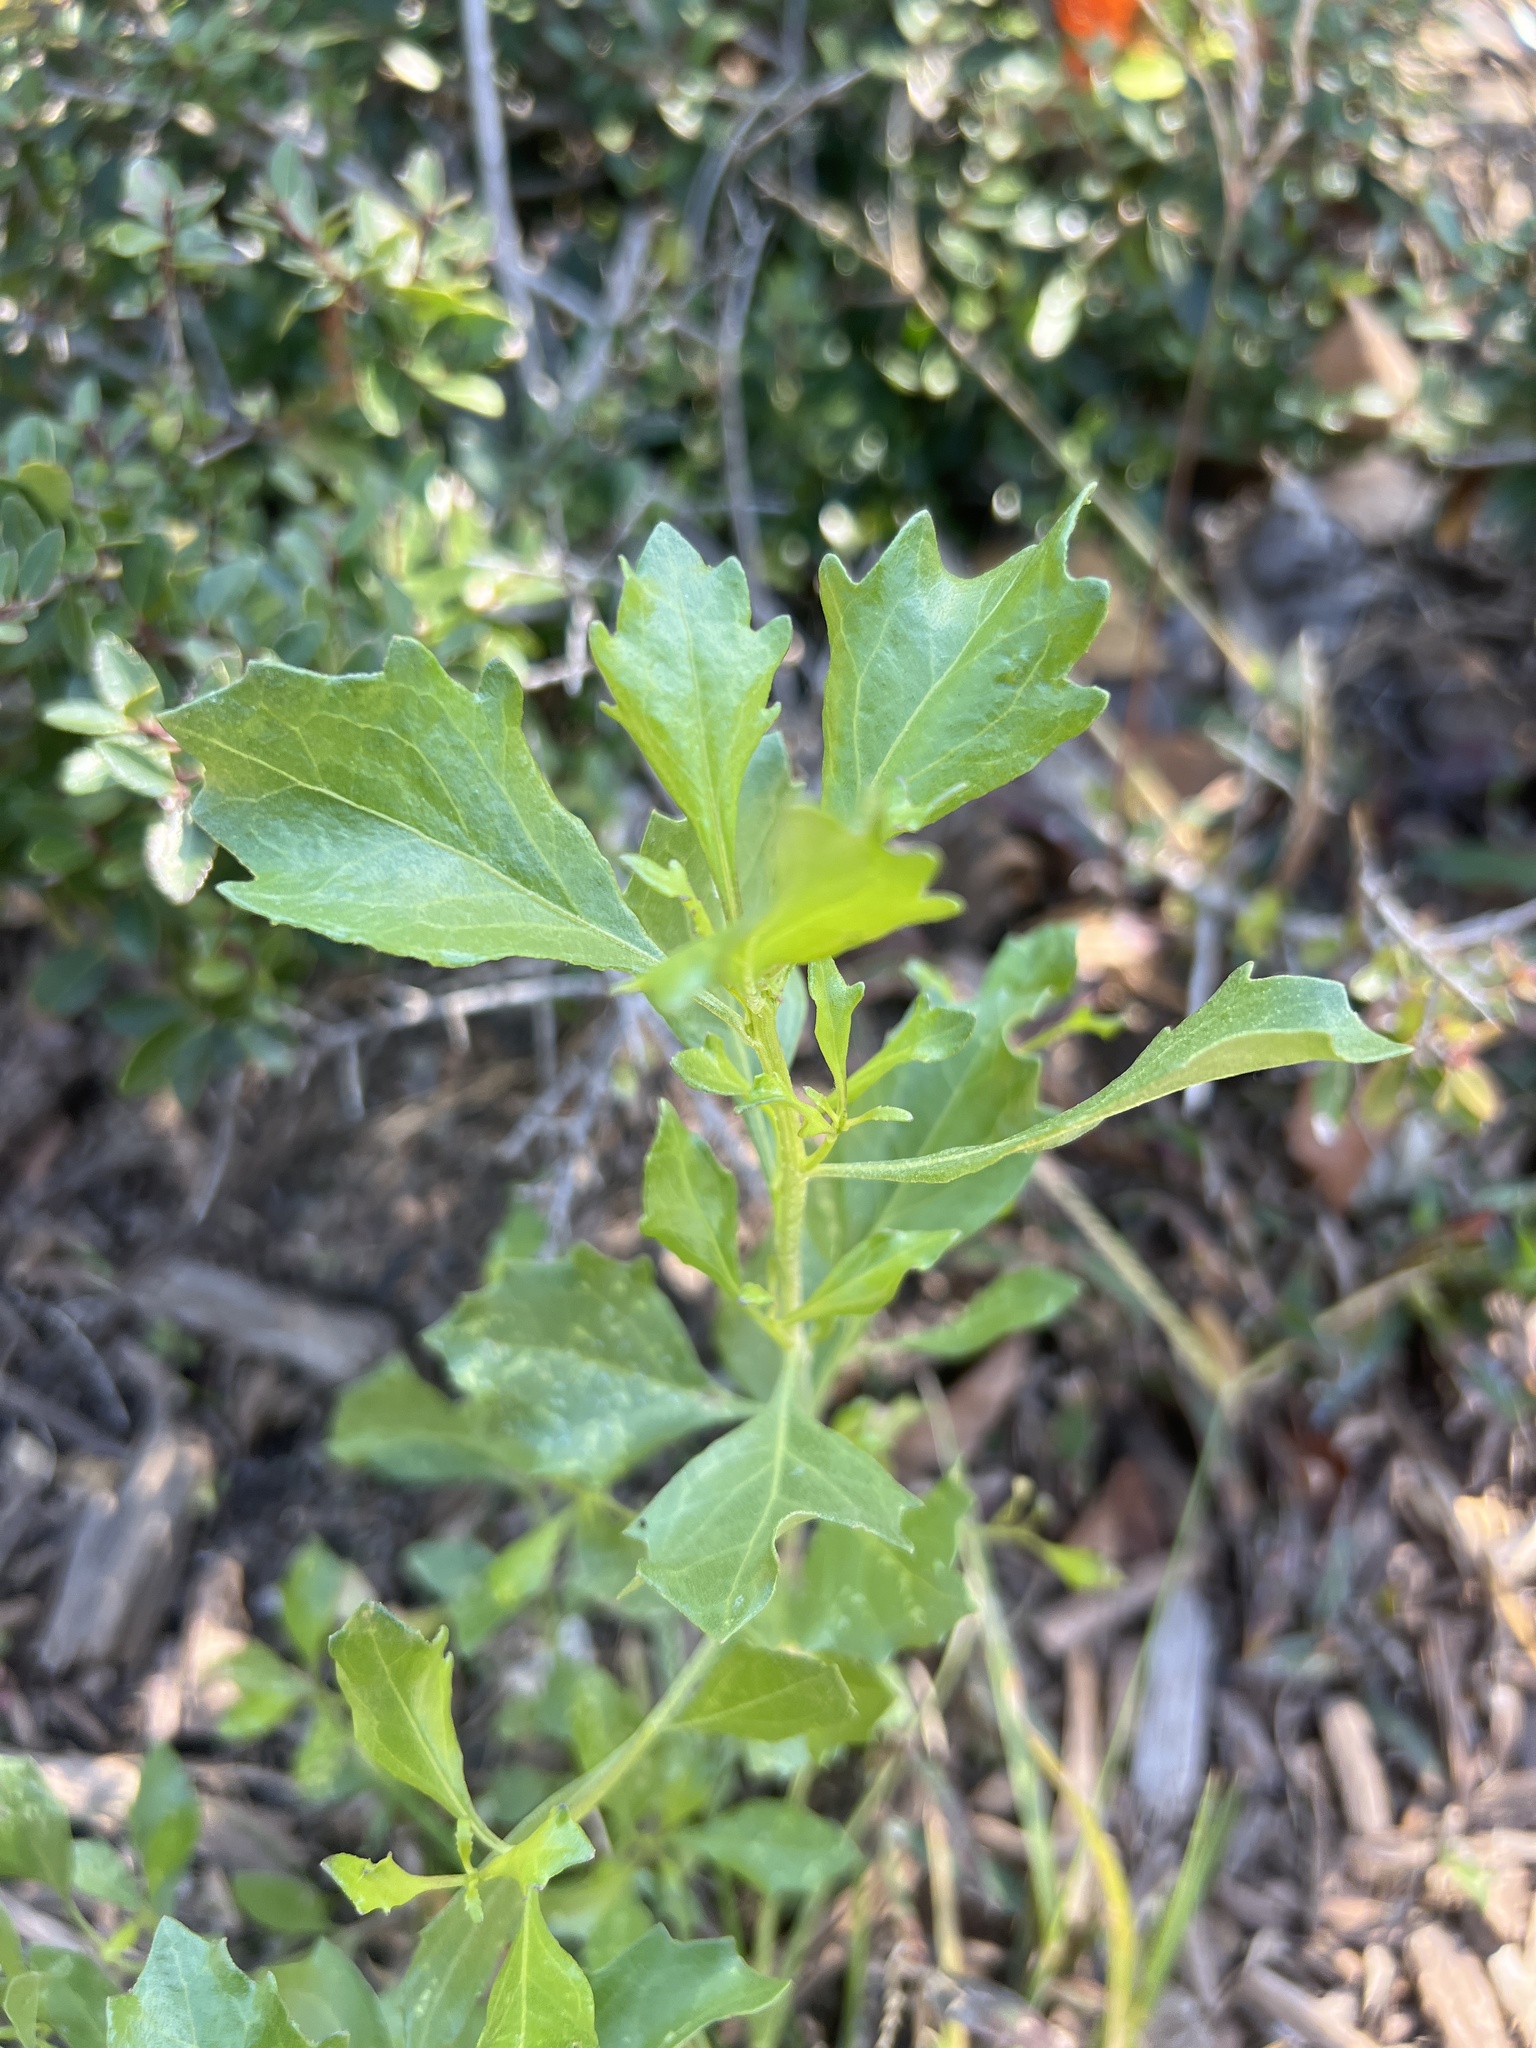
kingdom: Plantae
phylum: Tracheophyta
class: Magnoliopsida
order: Asterales
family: Asteraceae
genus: Baccharis
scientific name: Baccharis halimifolia
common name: Eastern baccharis
